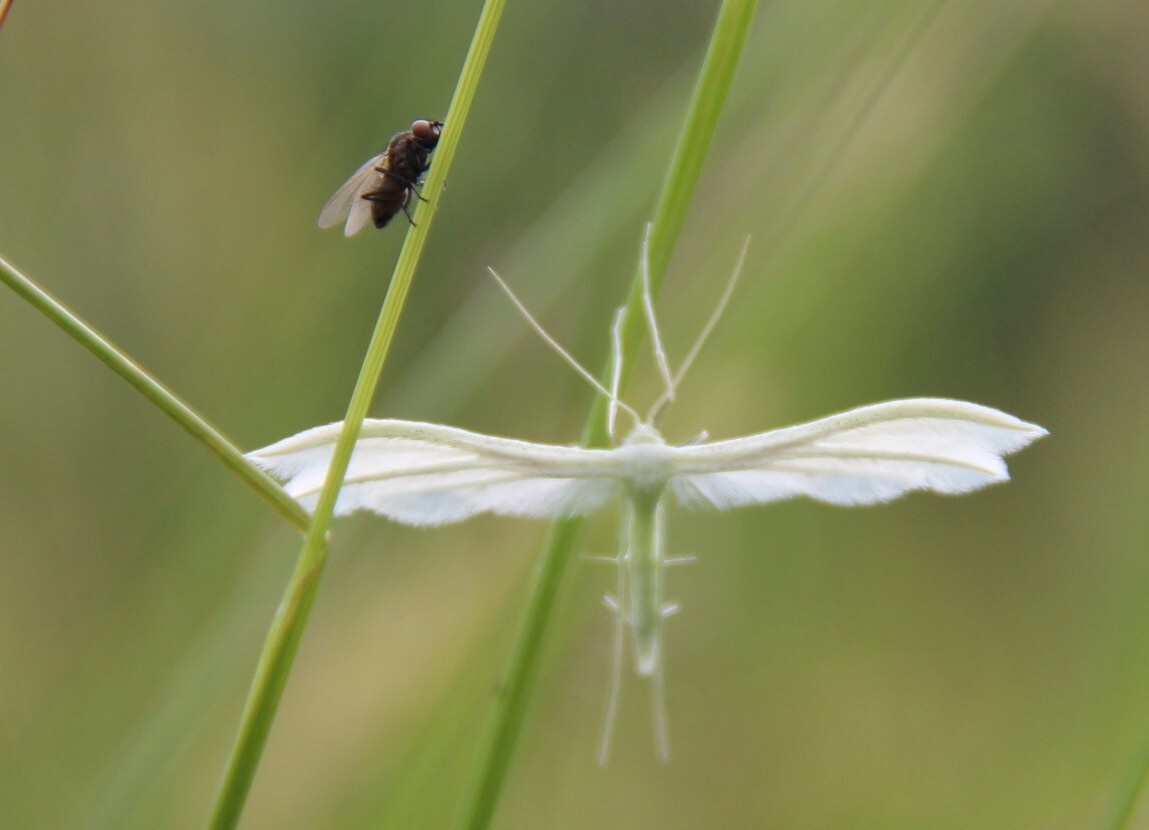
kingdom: Animalia
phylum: Arthropoda
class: Insecta
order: Lepidoptera
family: Pterophoridae
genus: Pterophorus
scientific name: Pterophorus pentadactyla
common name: White plume moth
